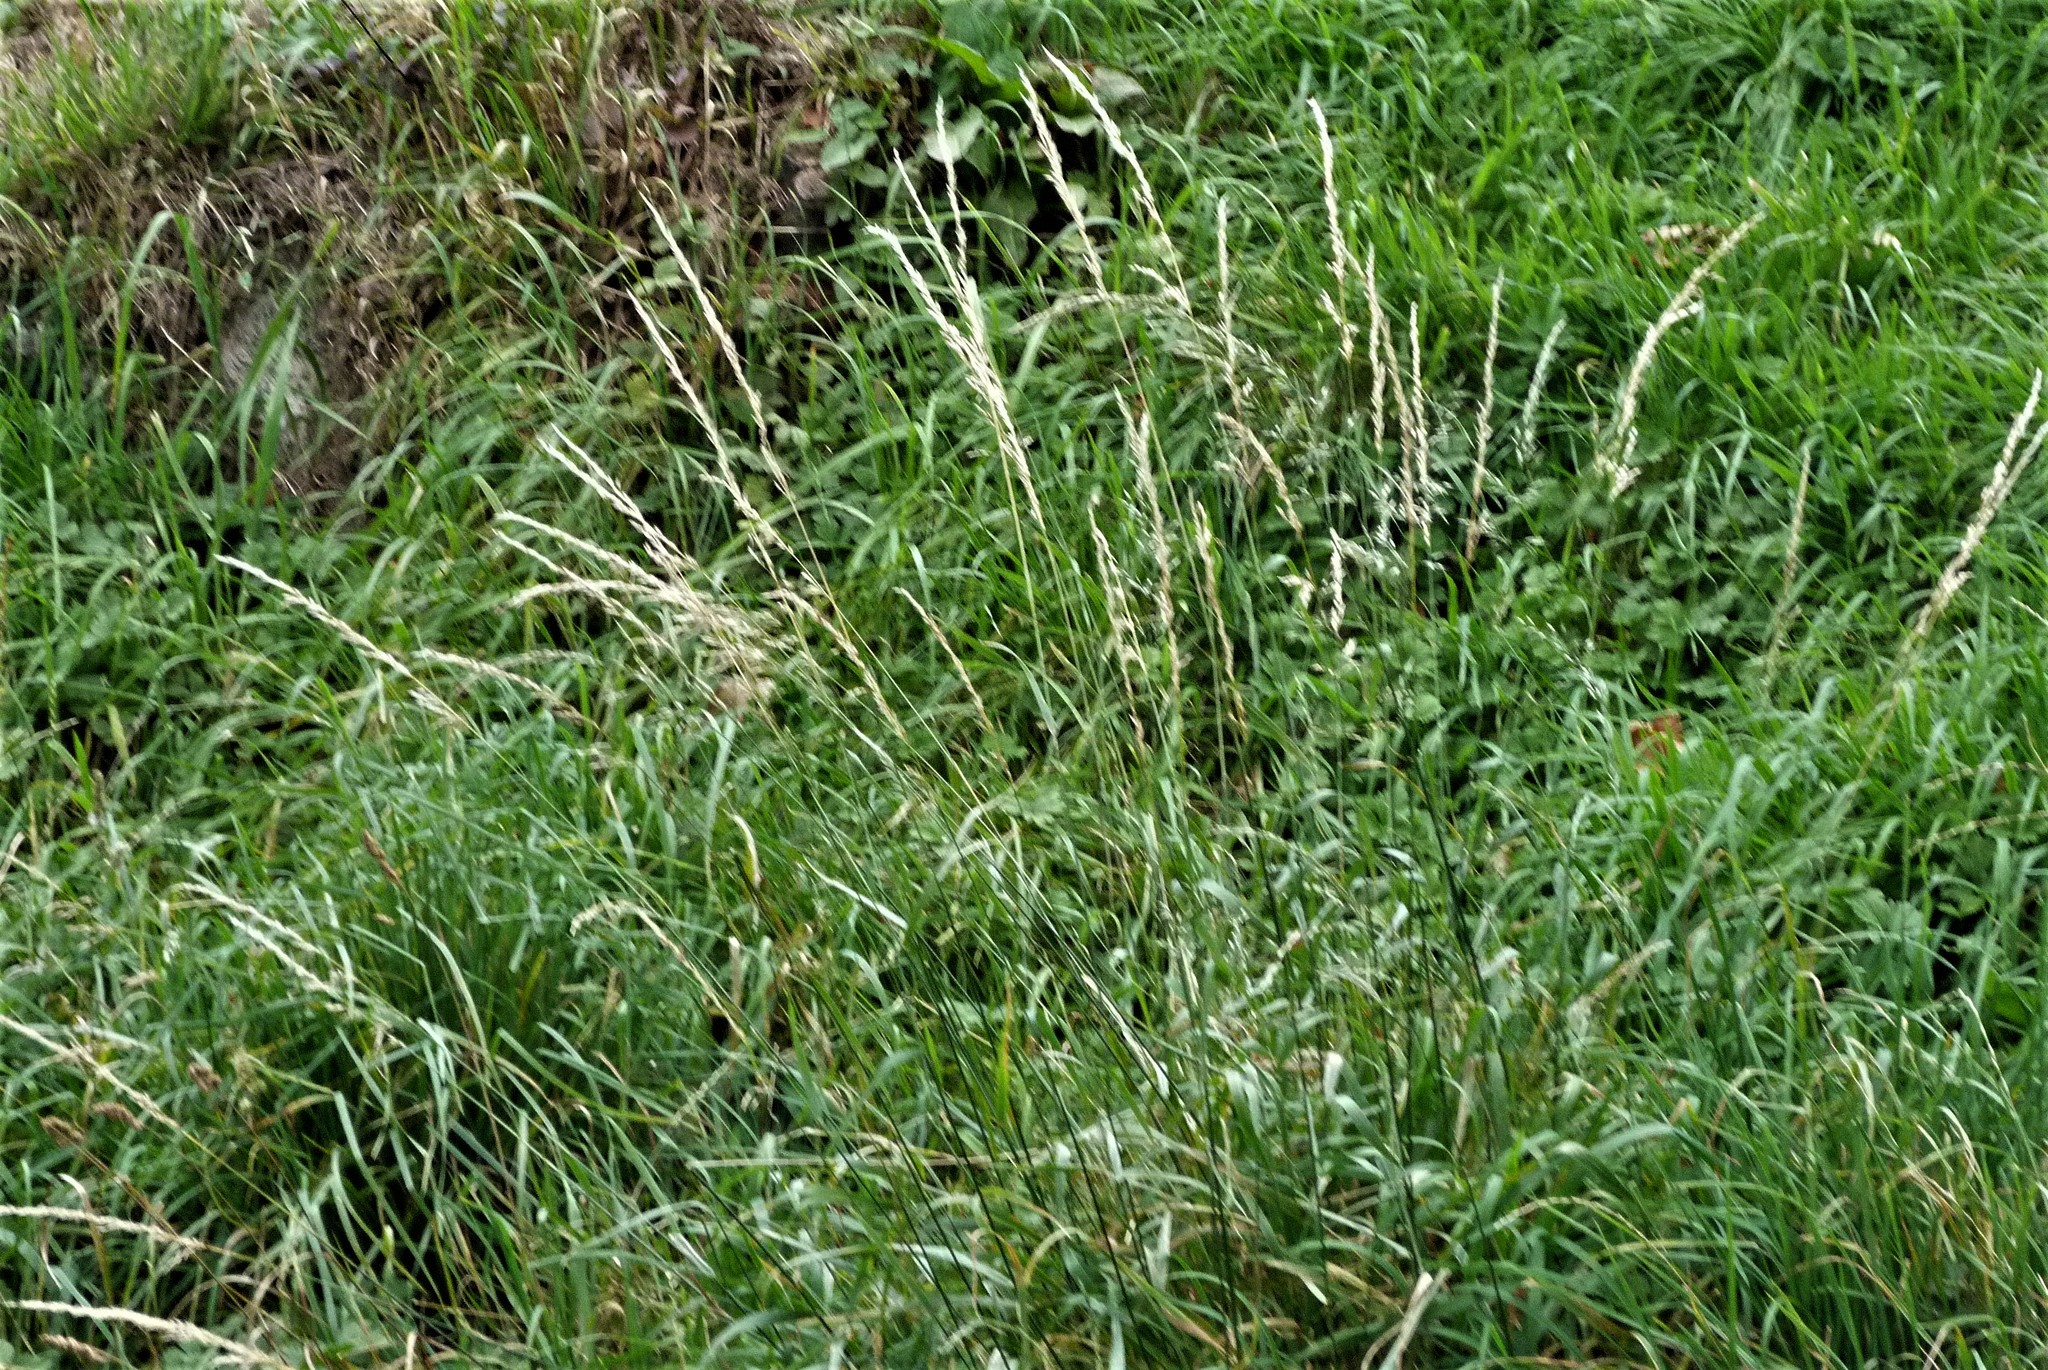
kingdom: Plantae
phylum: Tracheophyta
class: Liliopsida
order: Poales
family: Poaceae
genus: Arrhenatherum
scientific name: Arrhenatherum elatius
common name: Tall oatgrass
